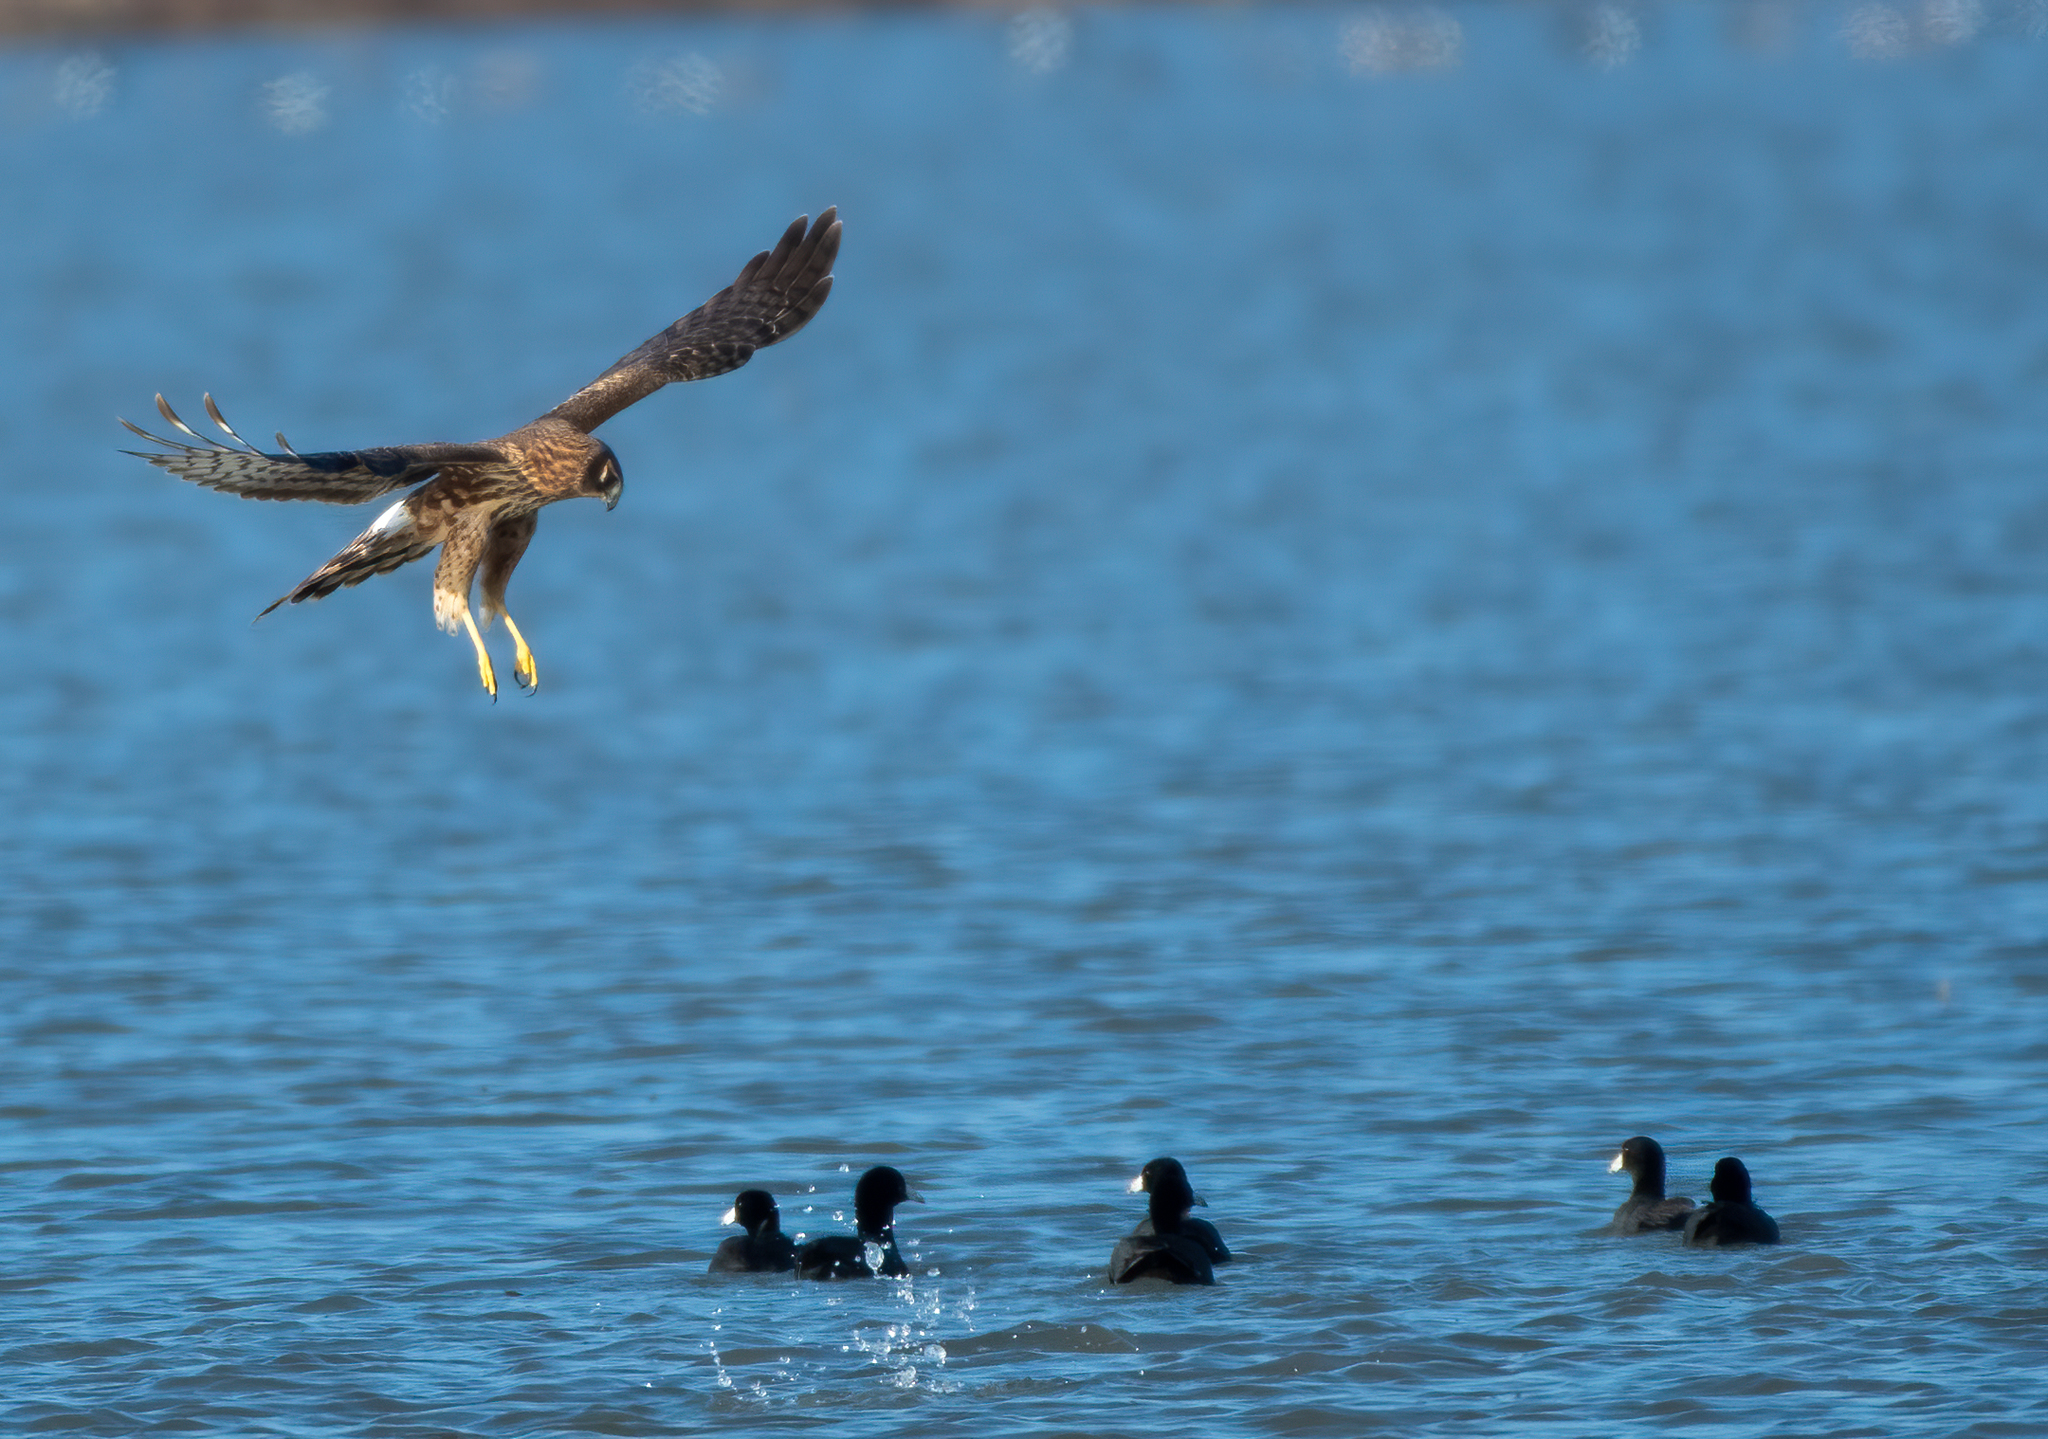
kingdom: Animalia
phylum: Chordata
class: Aves
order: Accipitriformes
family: Accipitridae
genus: Circus
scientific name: Circus cyaneus
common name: Hen harrier
